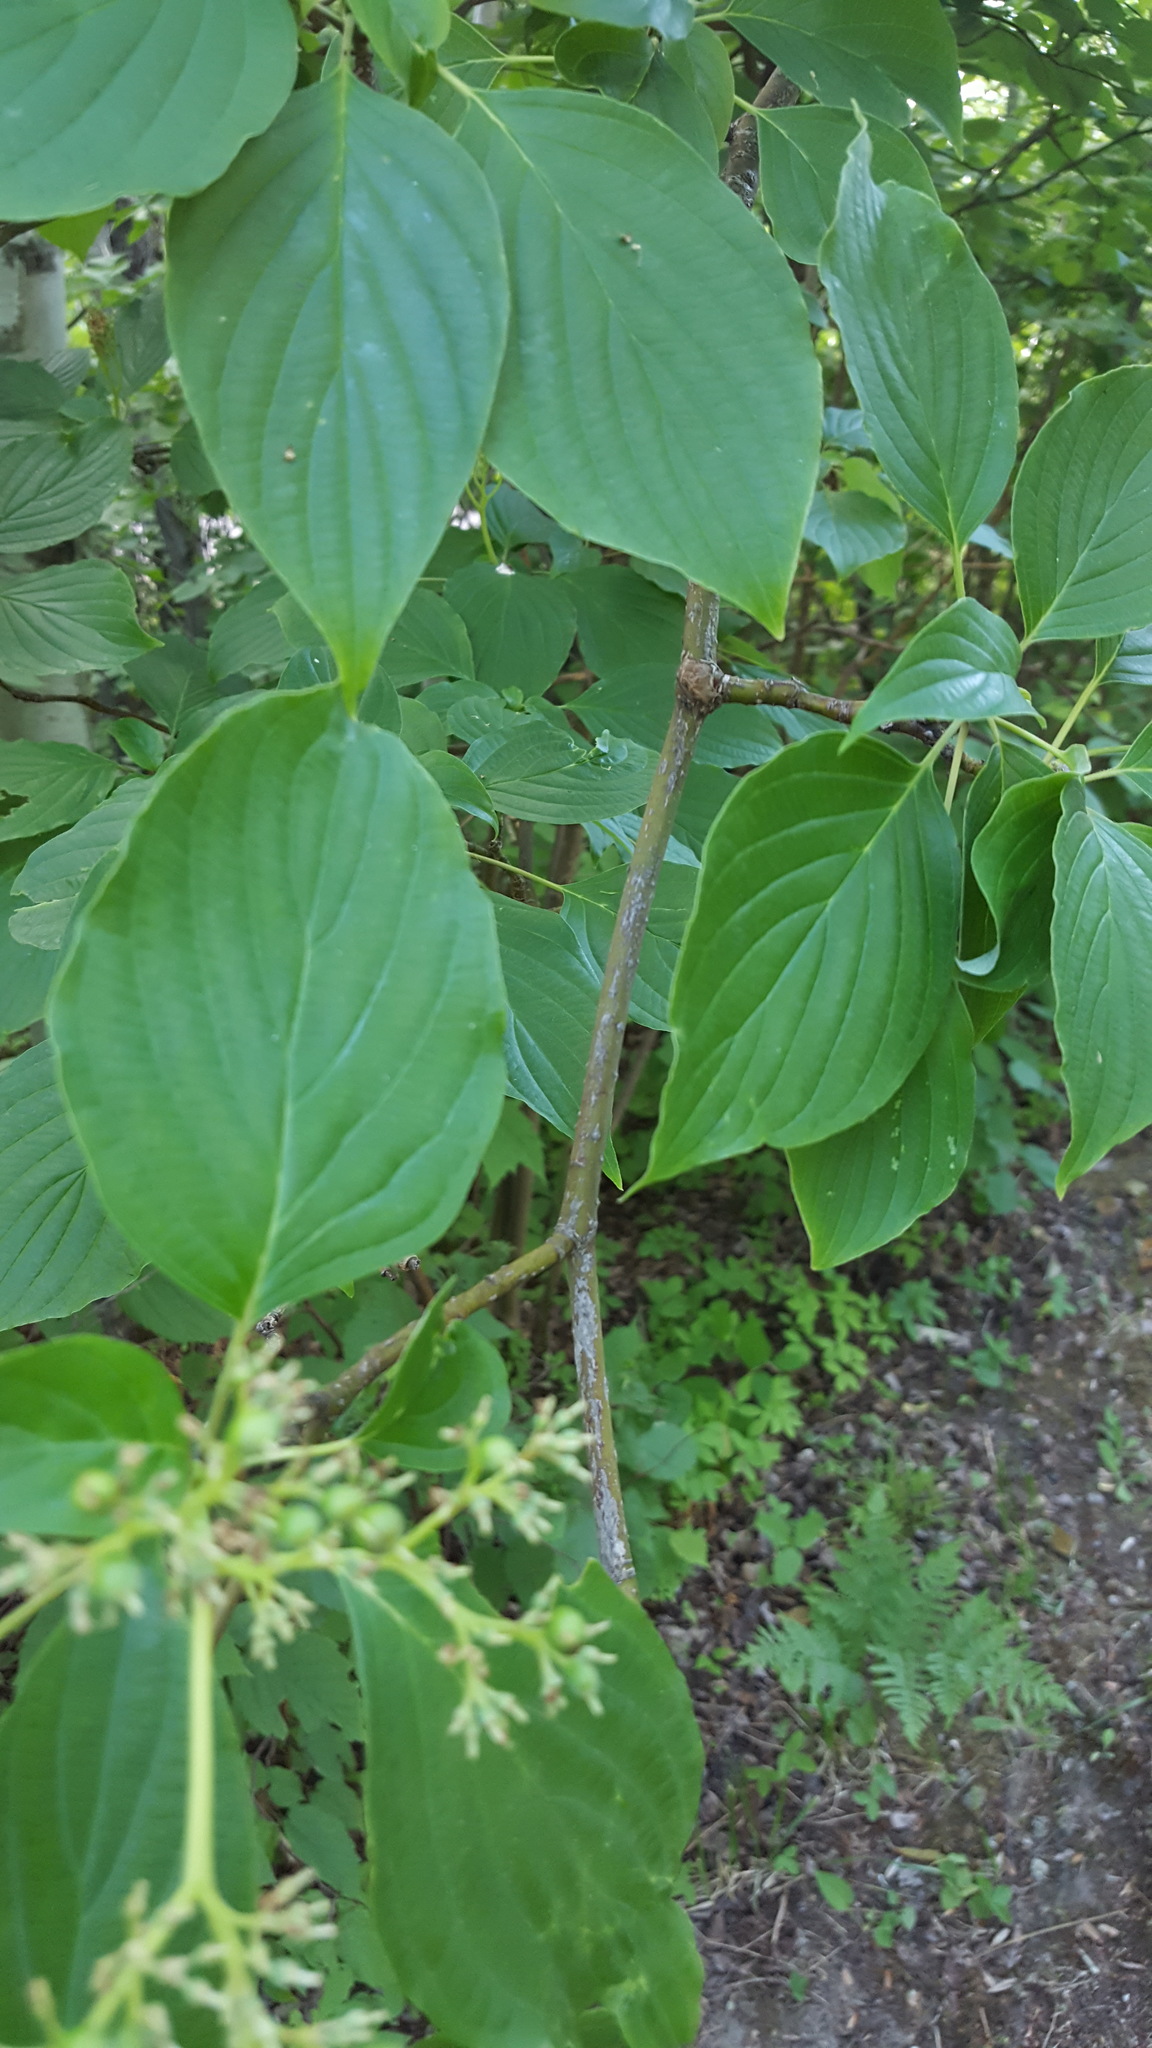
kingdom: Plantae
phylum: Tracheophyta
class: Magnoliopsida
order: Cornales
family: Cornaceae
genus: Cornus
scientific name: Cornus alternifolia
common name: Pagoda dogwood
